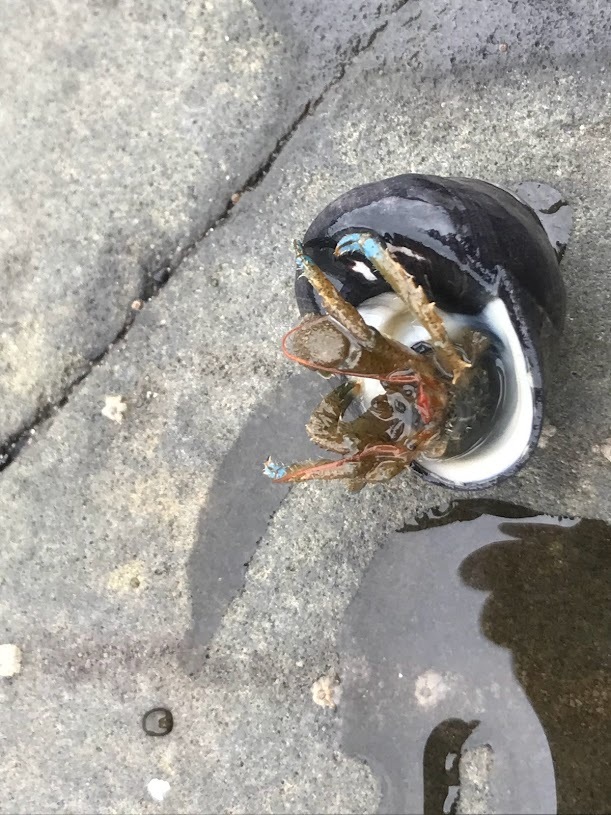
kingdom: Animalia
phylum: Arthropoda
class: Malacostraca
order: Decapoda
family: Paguridae
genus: Pagurus
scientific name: Pagurus samuelis
